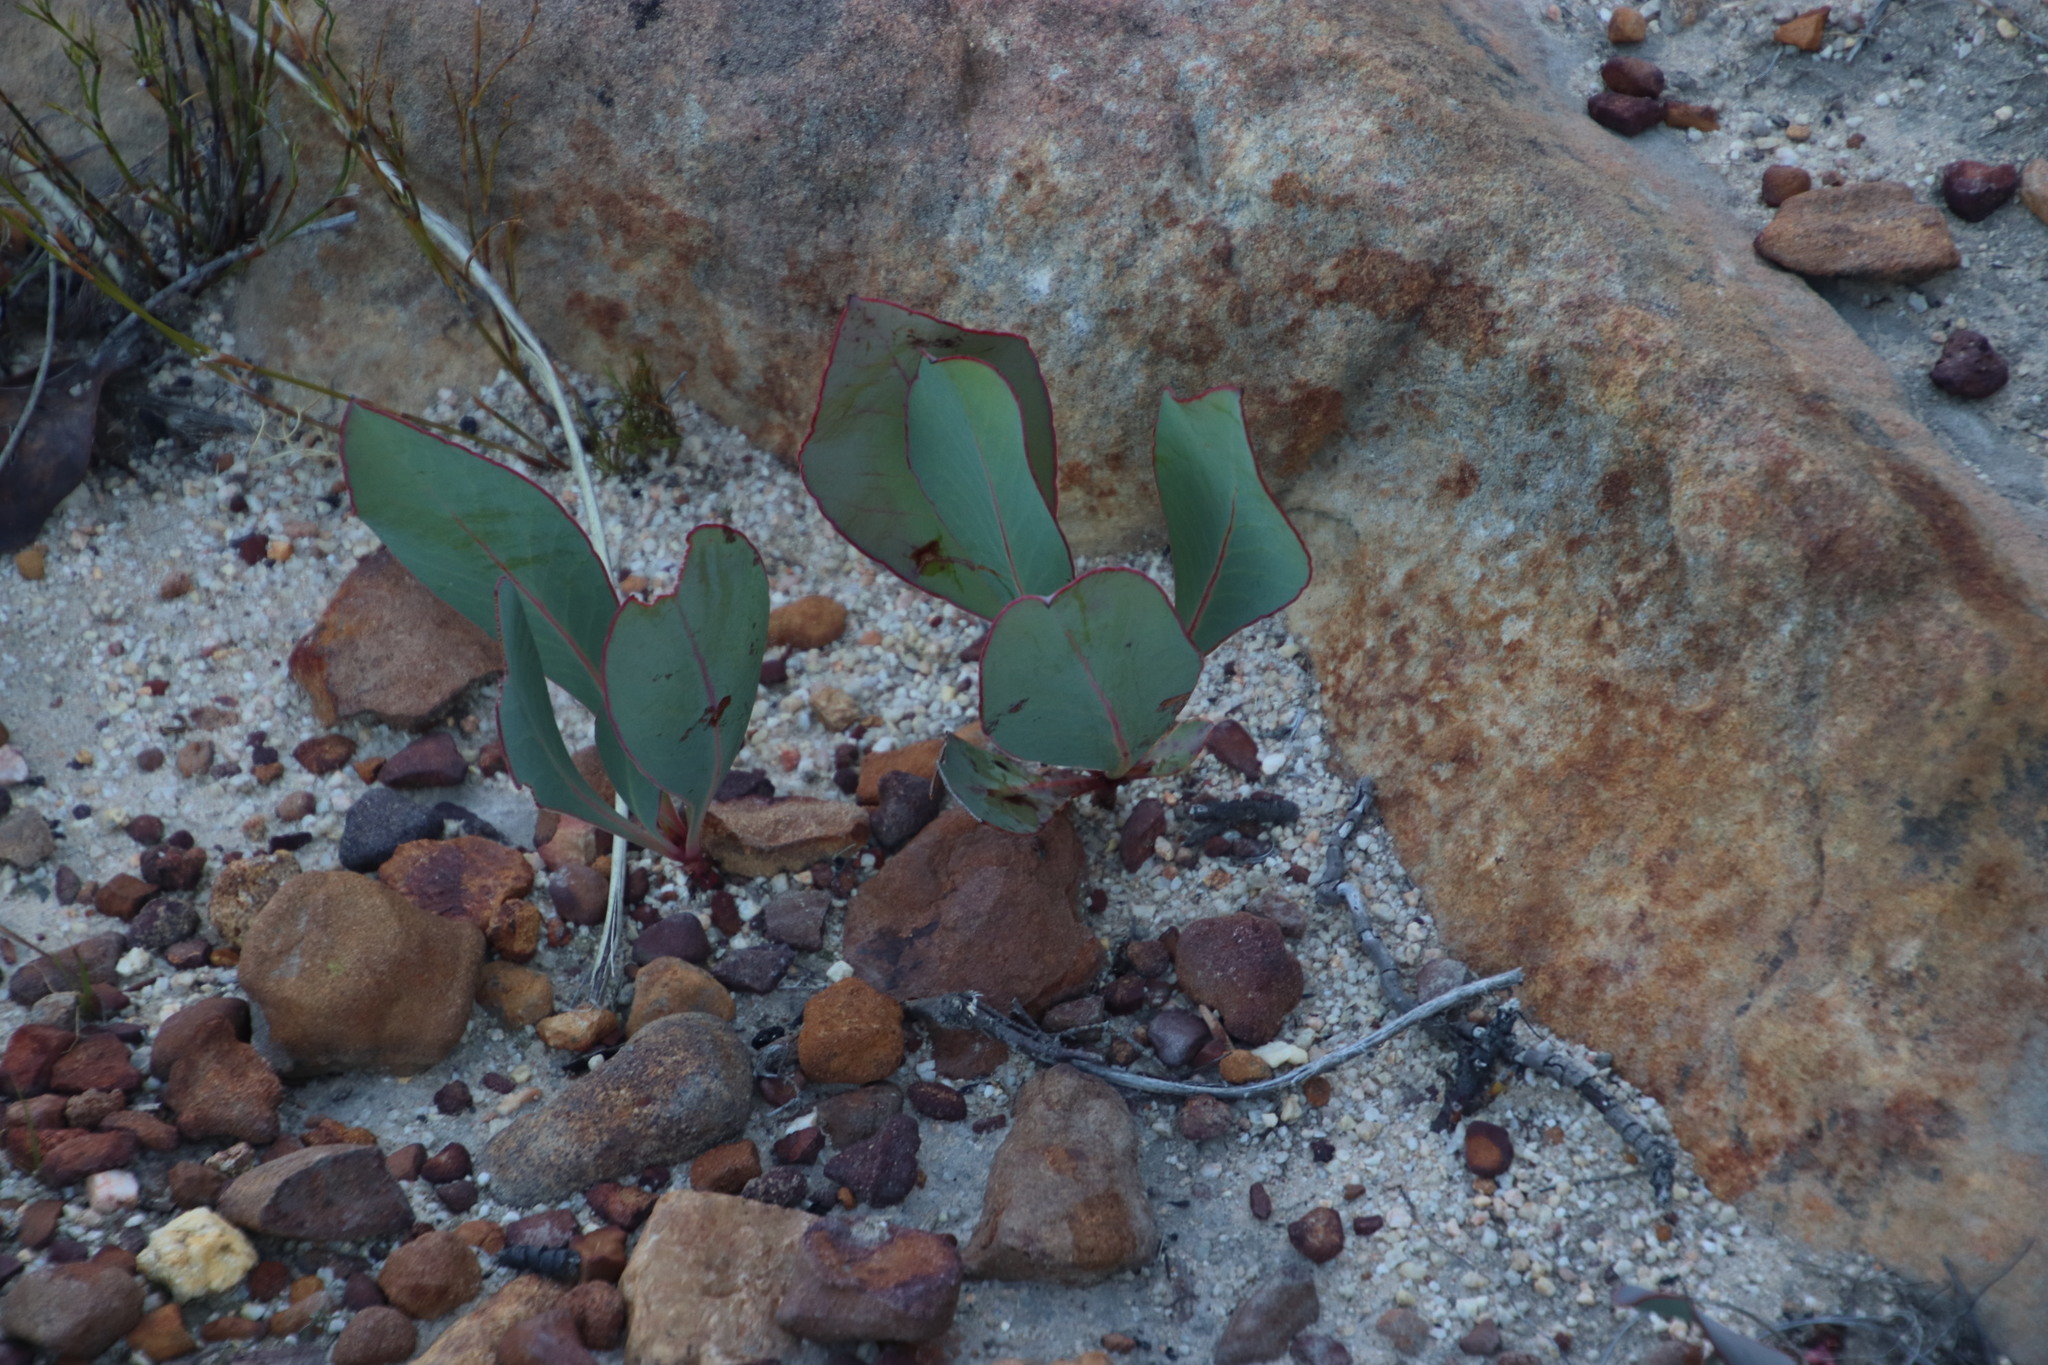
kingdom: Plantae
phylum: Tracheophyta
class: Magnoliopsida
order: Proteales
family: Proteaceae
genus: Protea
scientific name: Protea acaulos
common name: Common ground sugarbush
